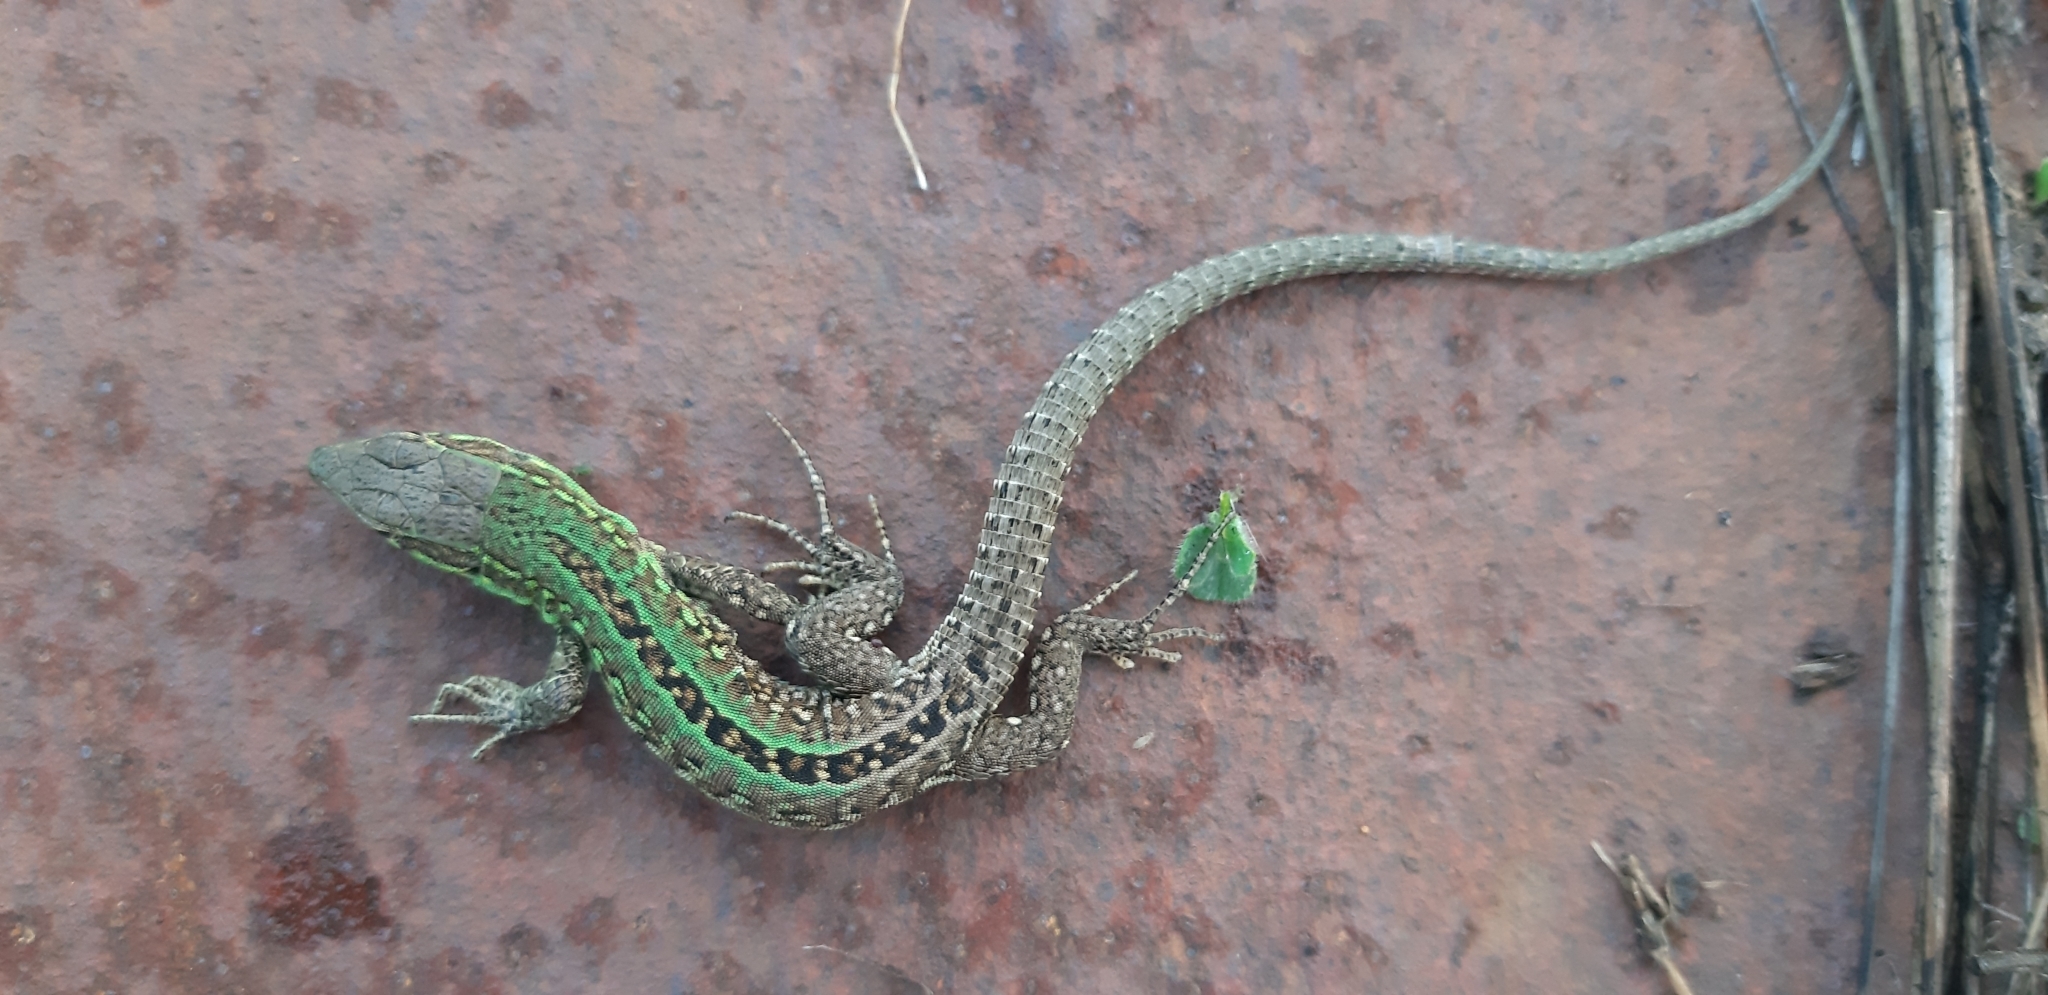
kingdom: Animalia
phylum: Chordata
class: Squamata
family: Lacertidae
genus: Podarcis
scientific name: Podarcis siculus
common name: Italian wall lizard
